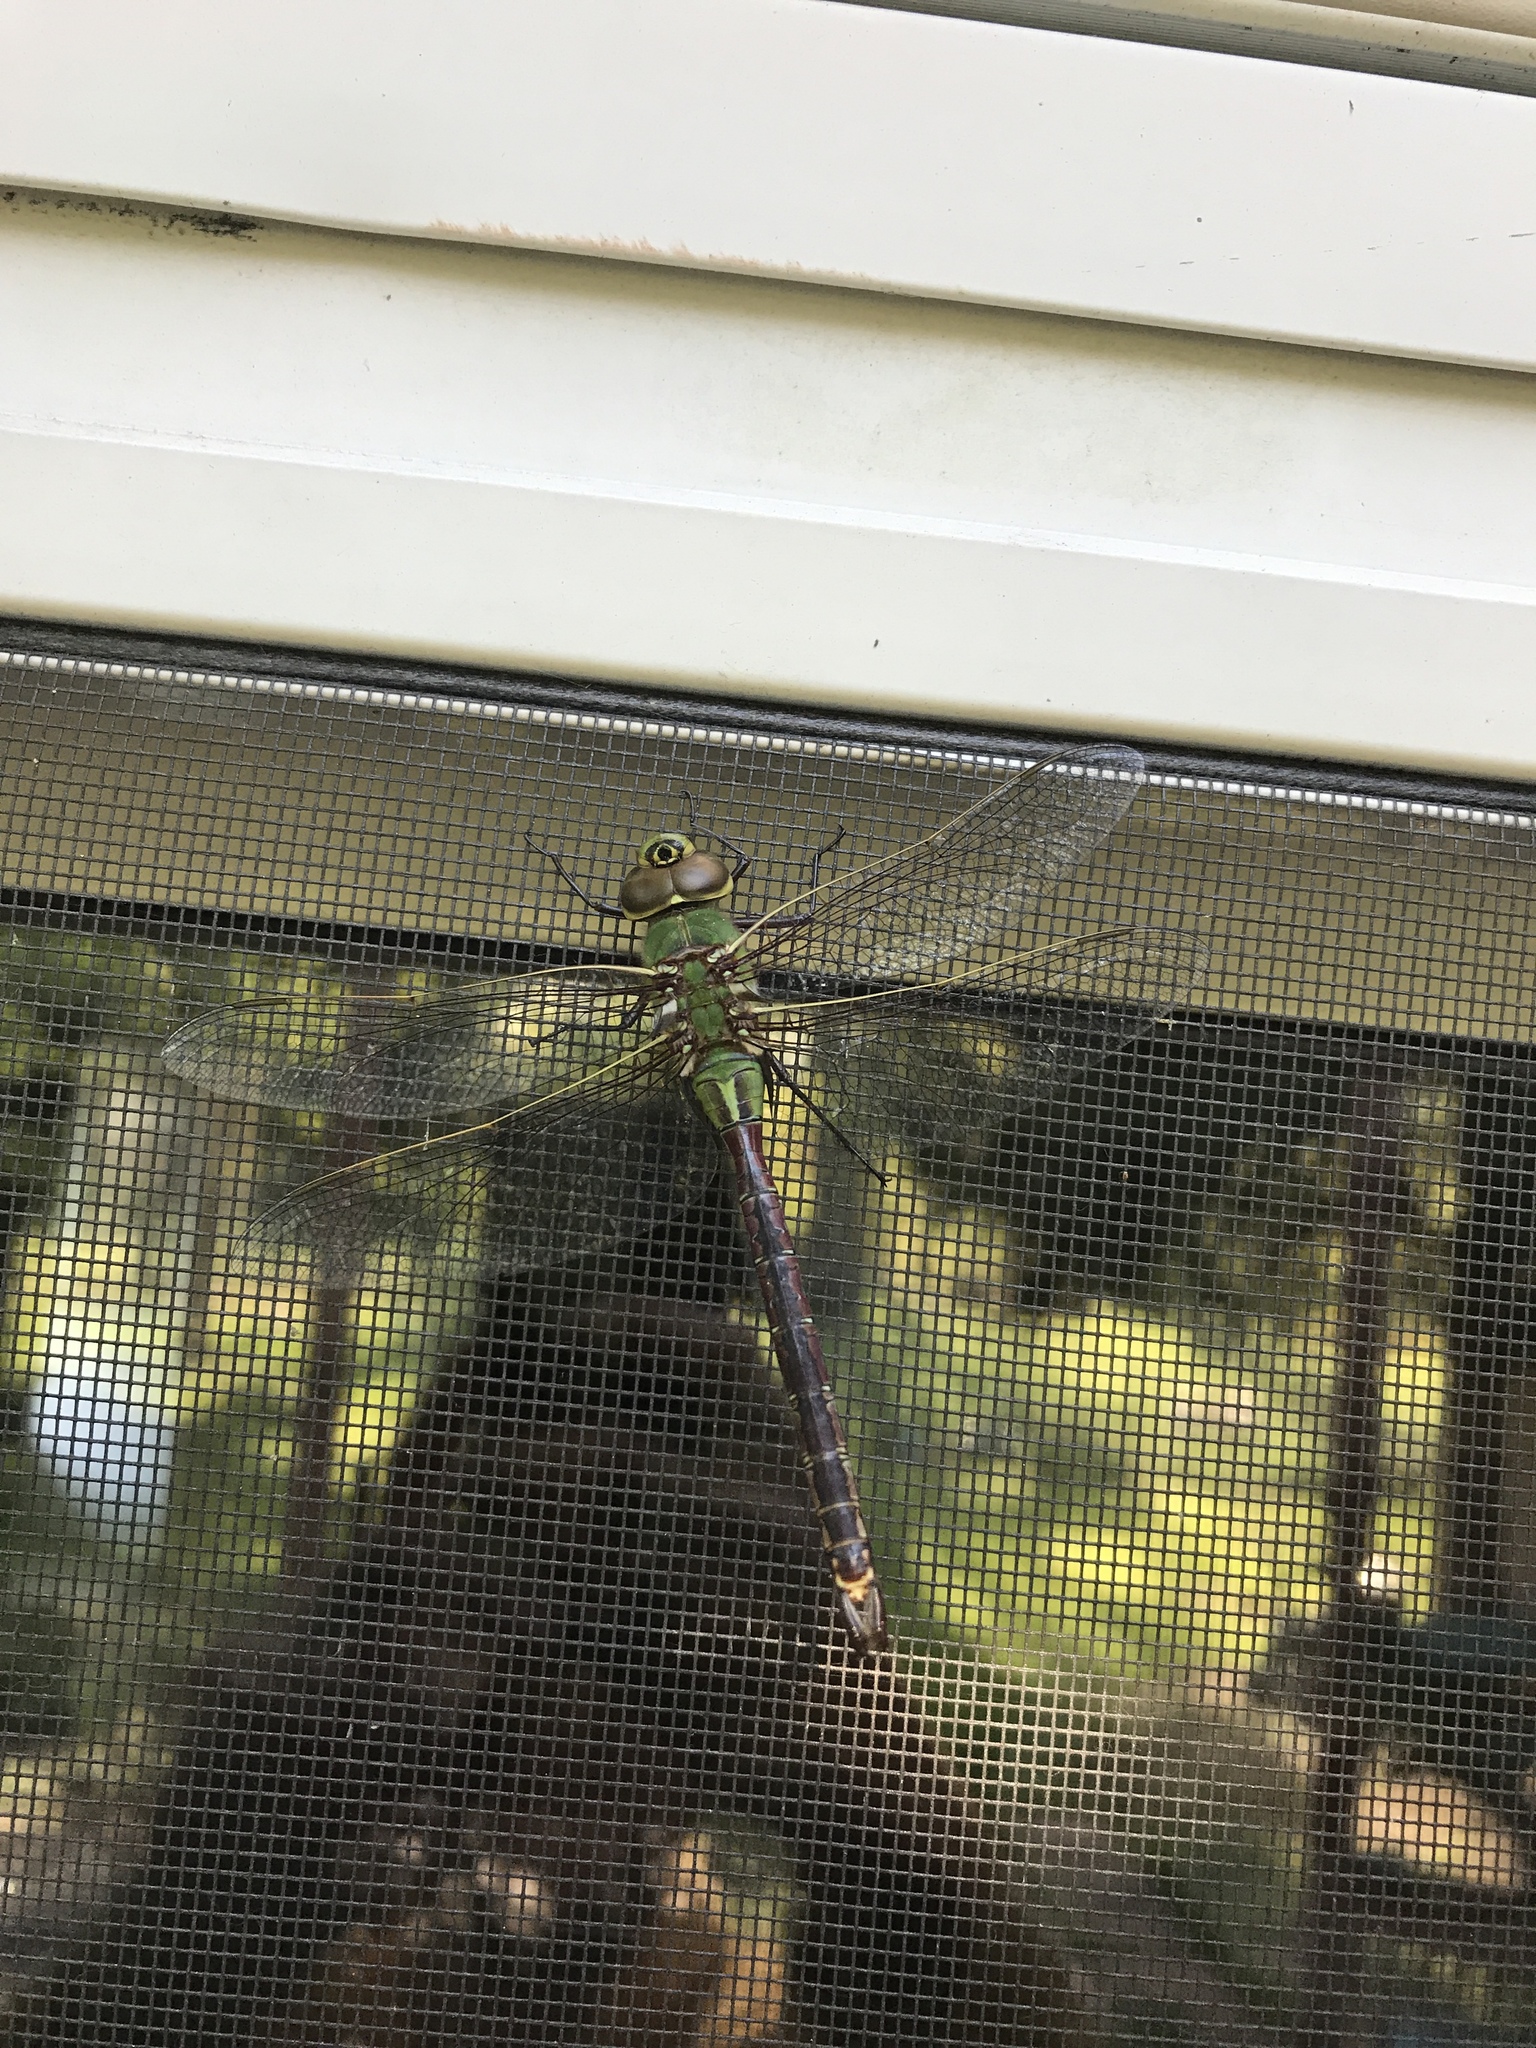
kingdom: Animalia
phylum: Arthropoda
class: Insecta
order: Odonata
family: Aeshnidae
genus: Anax
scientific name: Anax junius
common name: Common green darner
